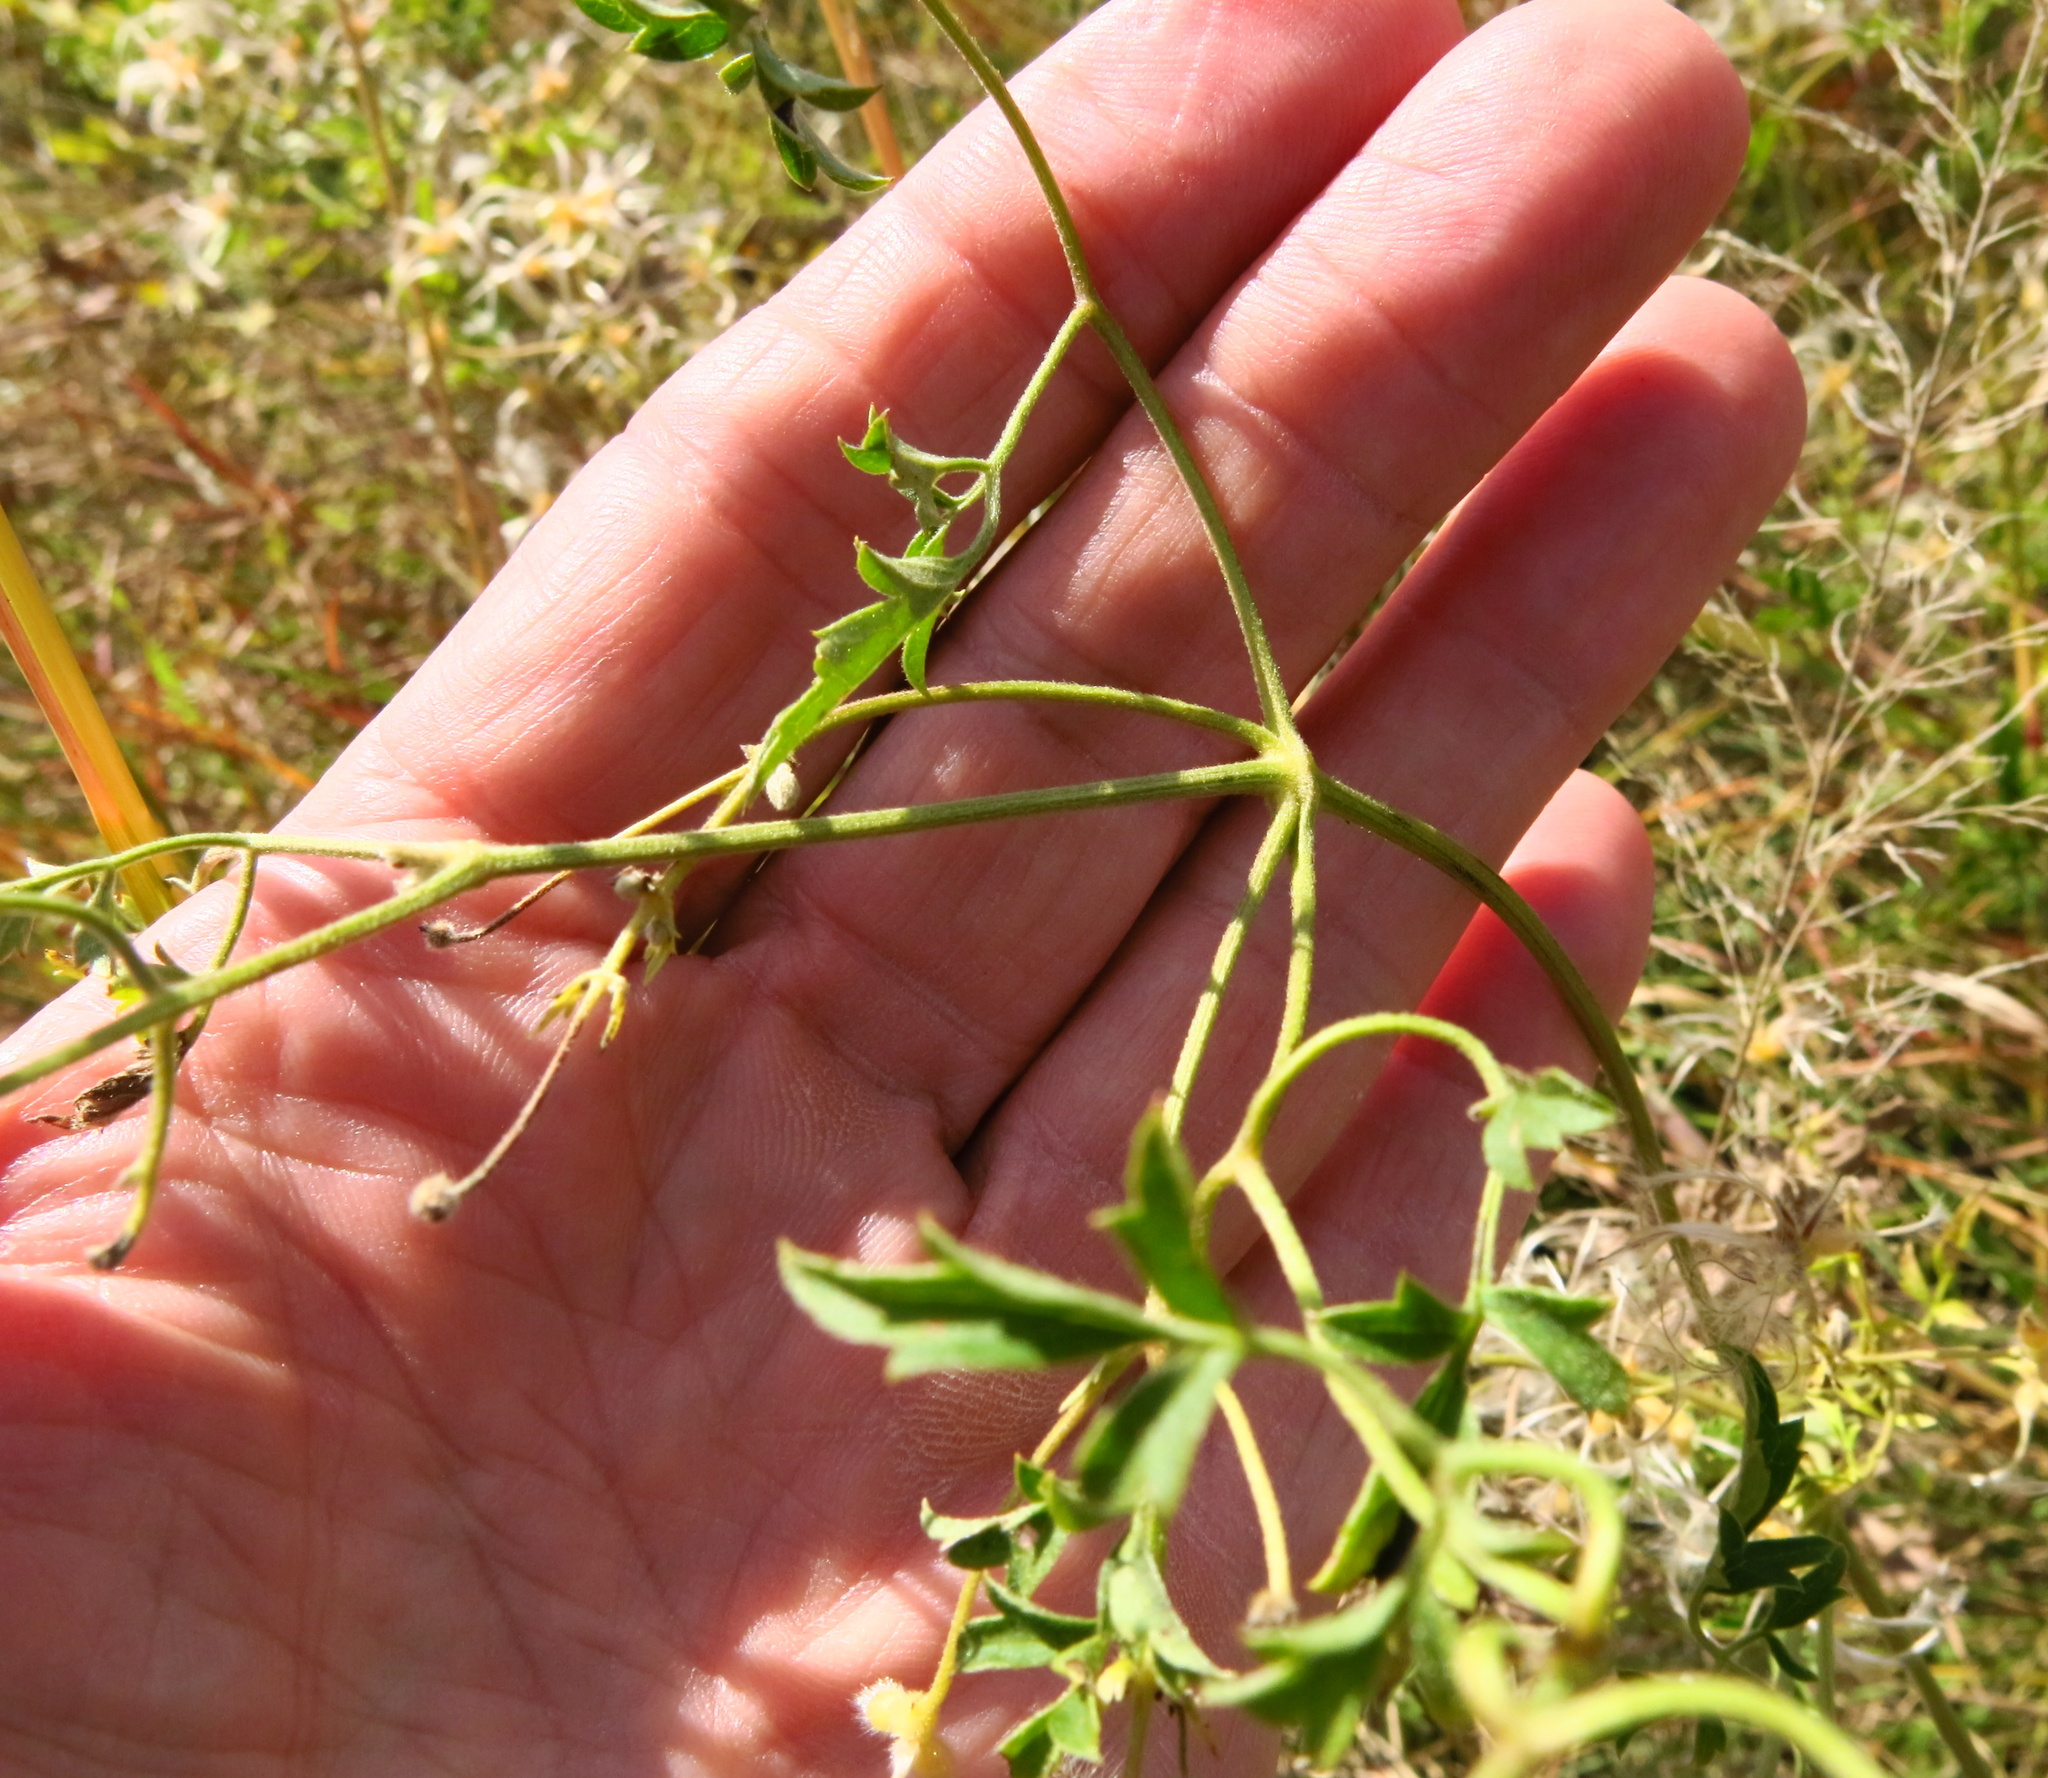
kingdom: Plantae
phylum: Tracheophyta
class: Magnoliopsida
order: Ranunculales
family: Ranunculaceae
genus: Clematis
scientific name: Clematis brachiata
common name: Traveler's-joy
